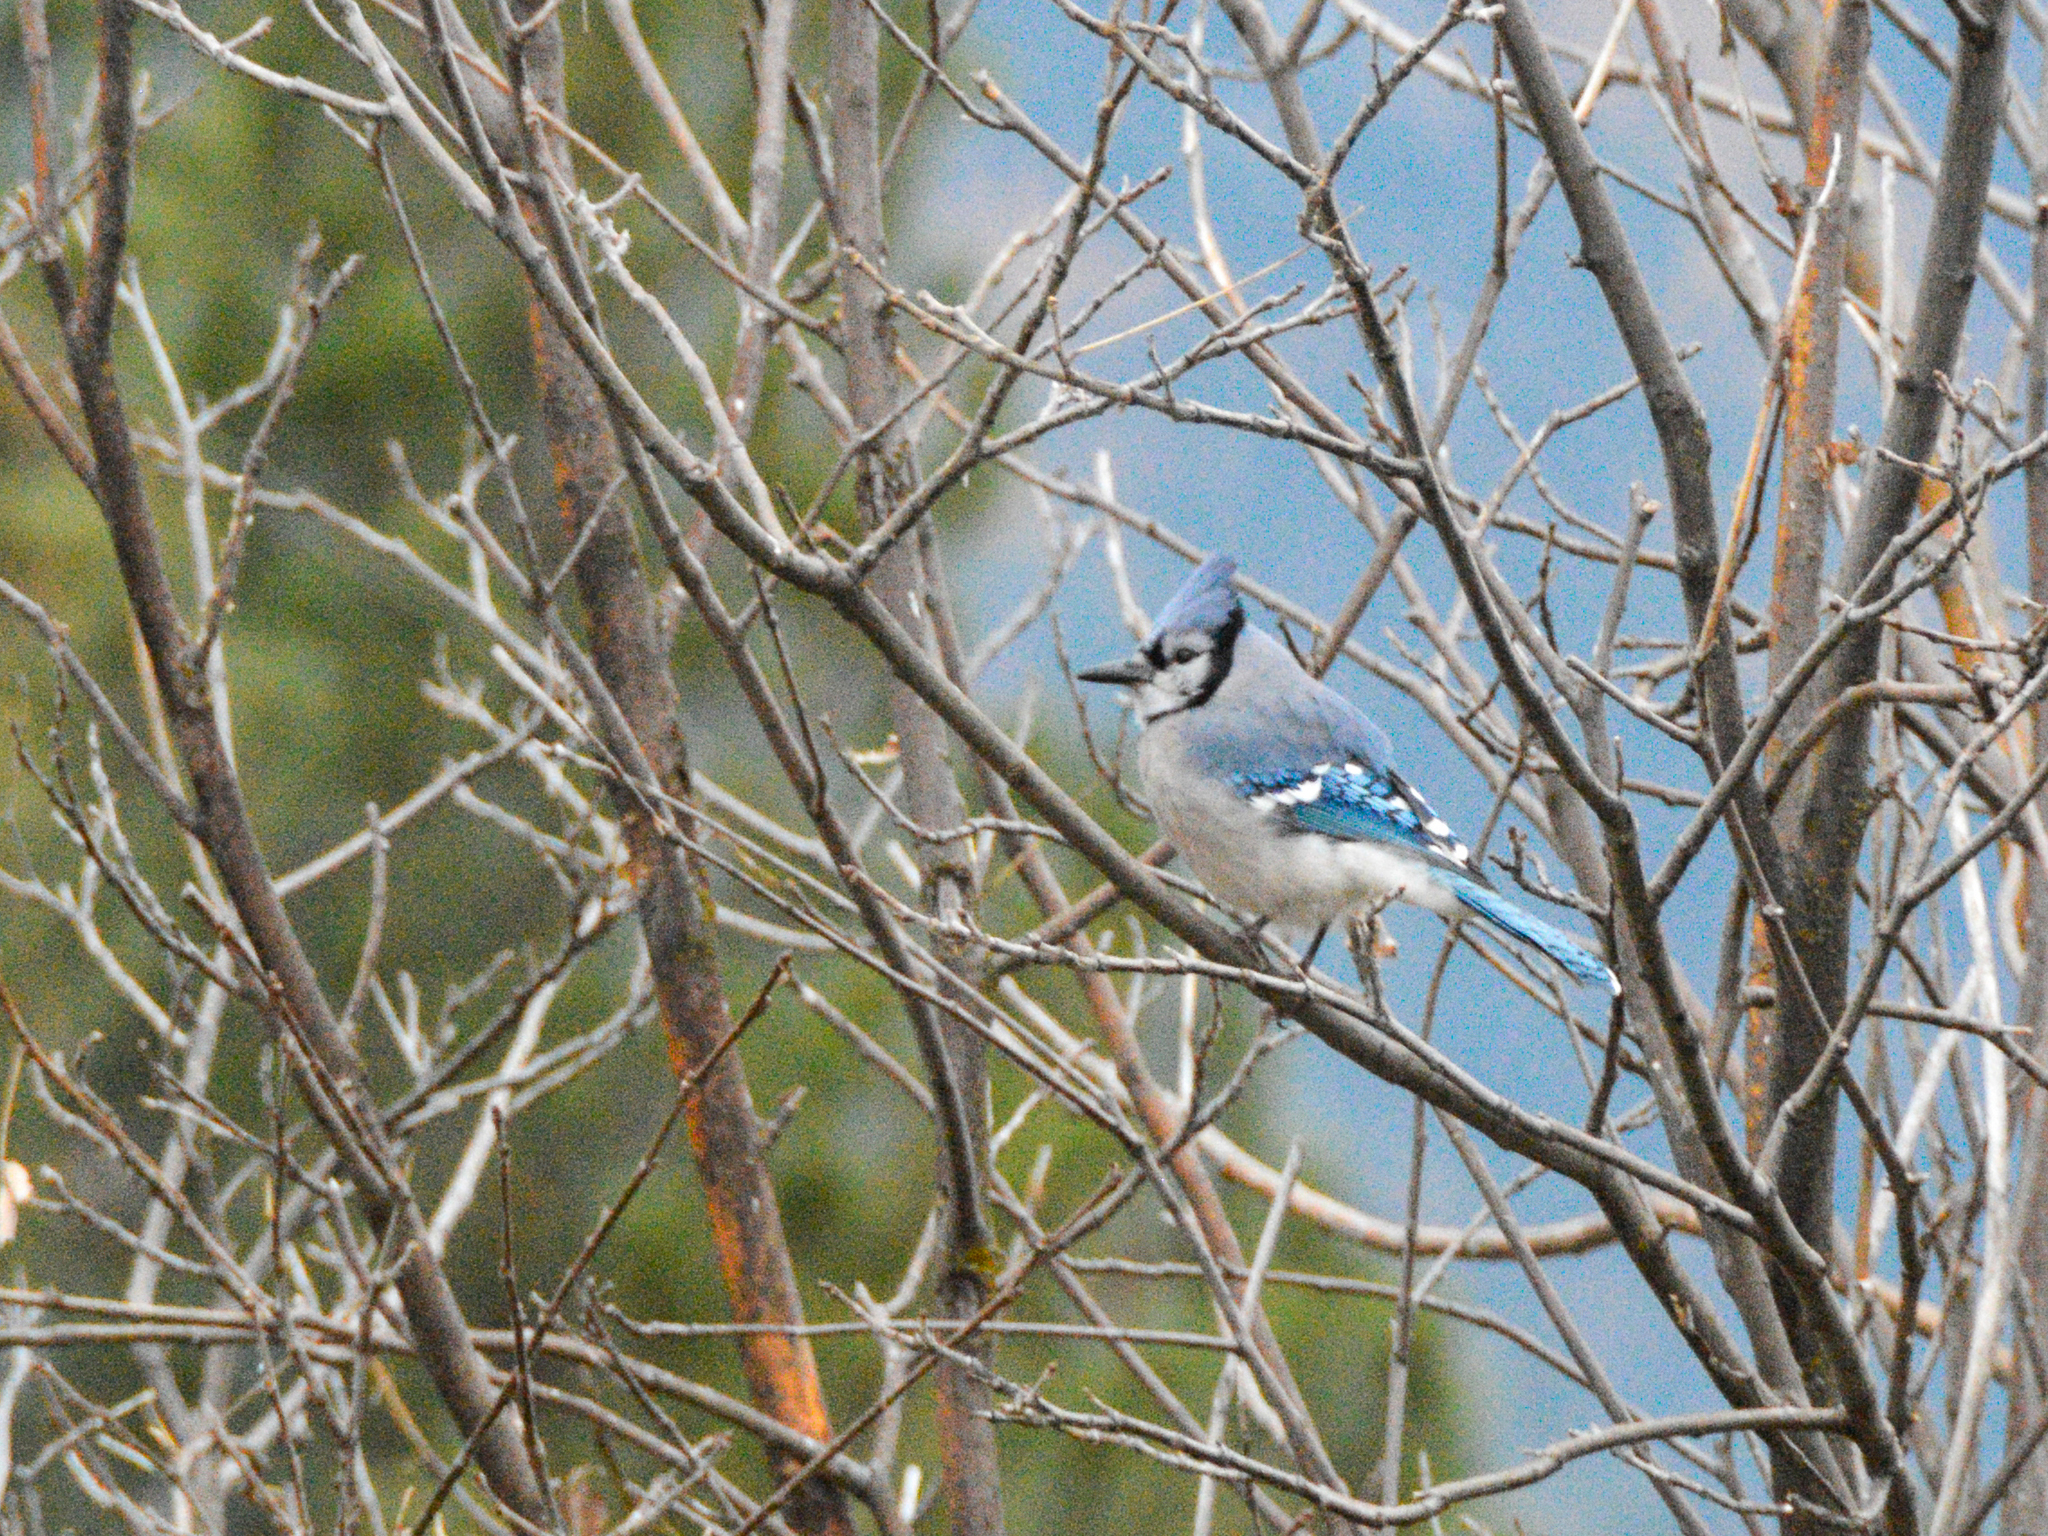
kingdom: Animalia
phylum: Chordata
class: Aves
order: Passeriformes
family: Corvidae
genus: Cyanocitta
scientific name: Cyanocitta cristata
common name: Blue jay
